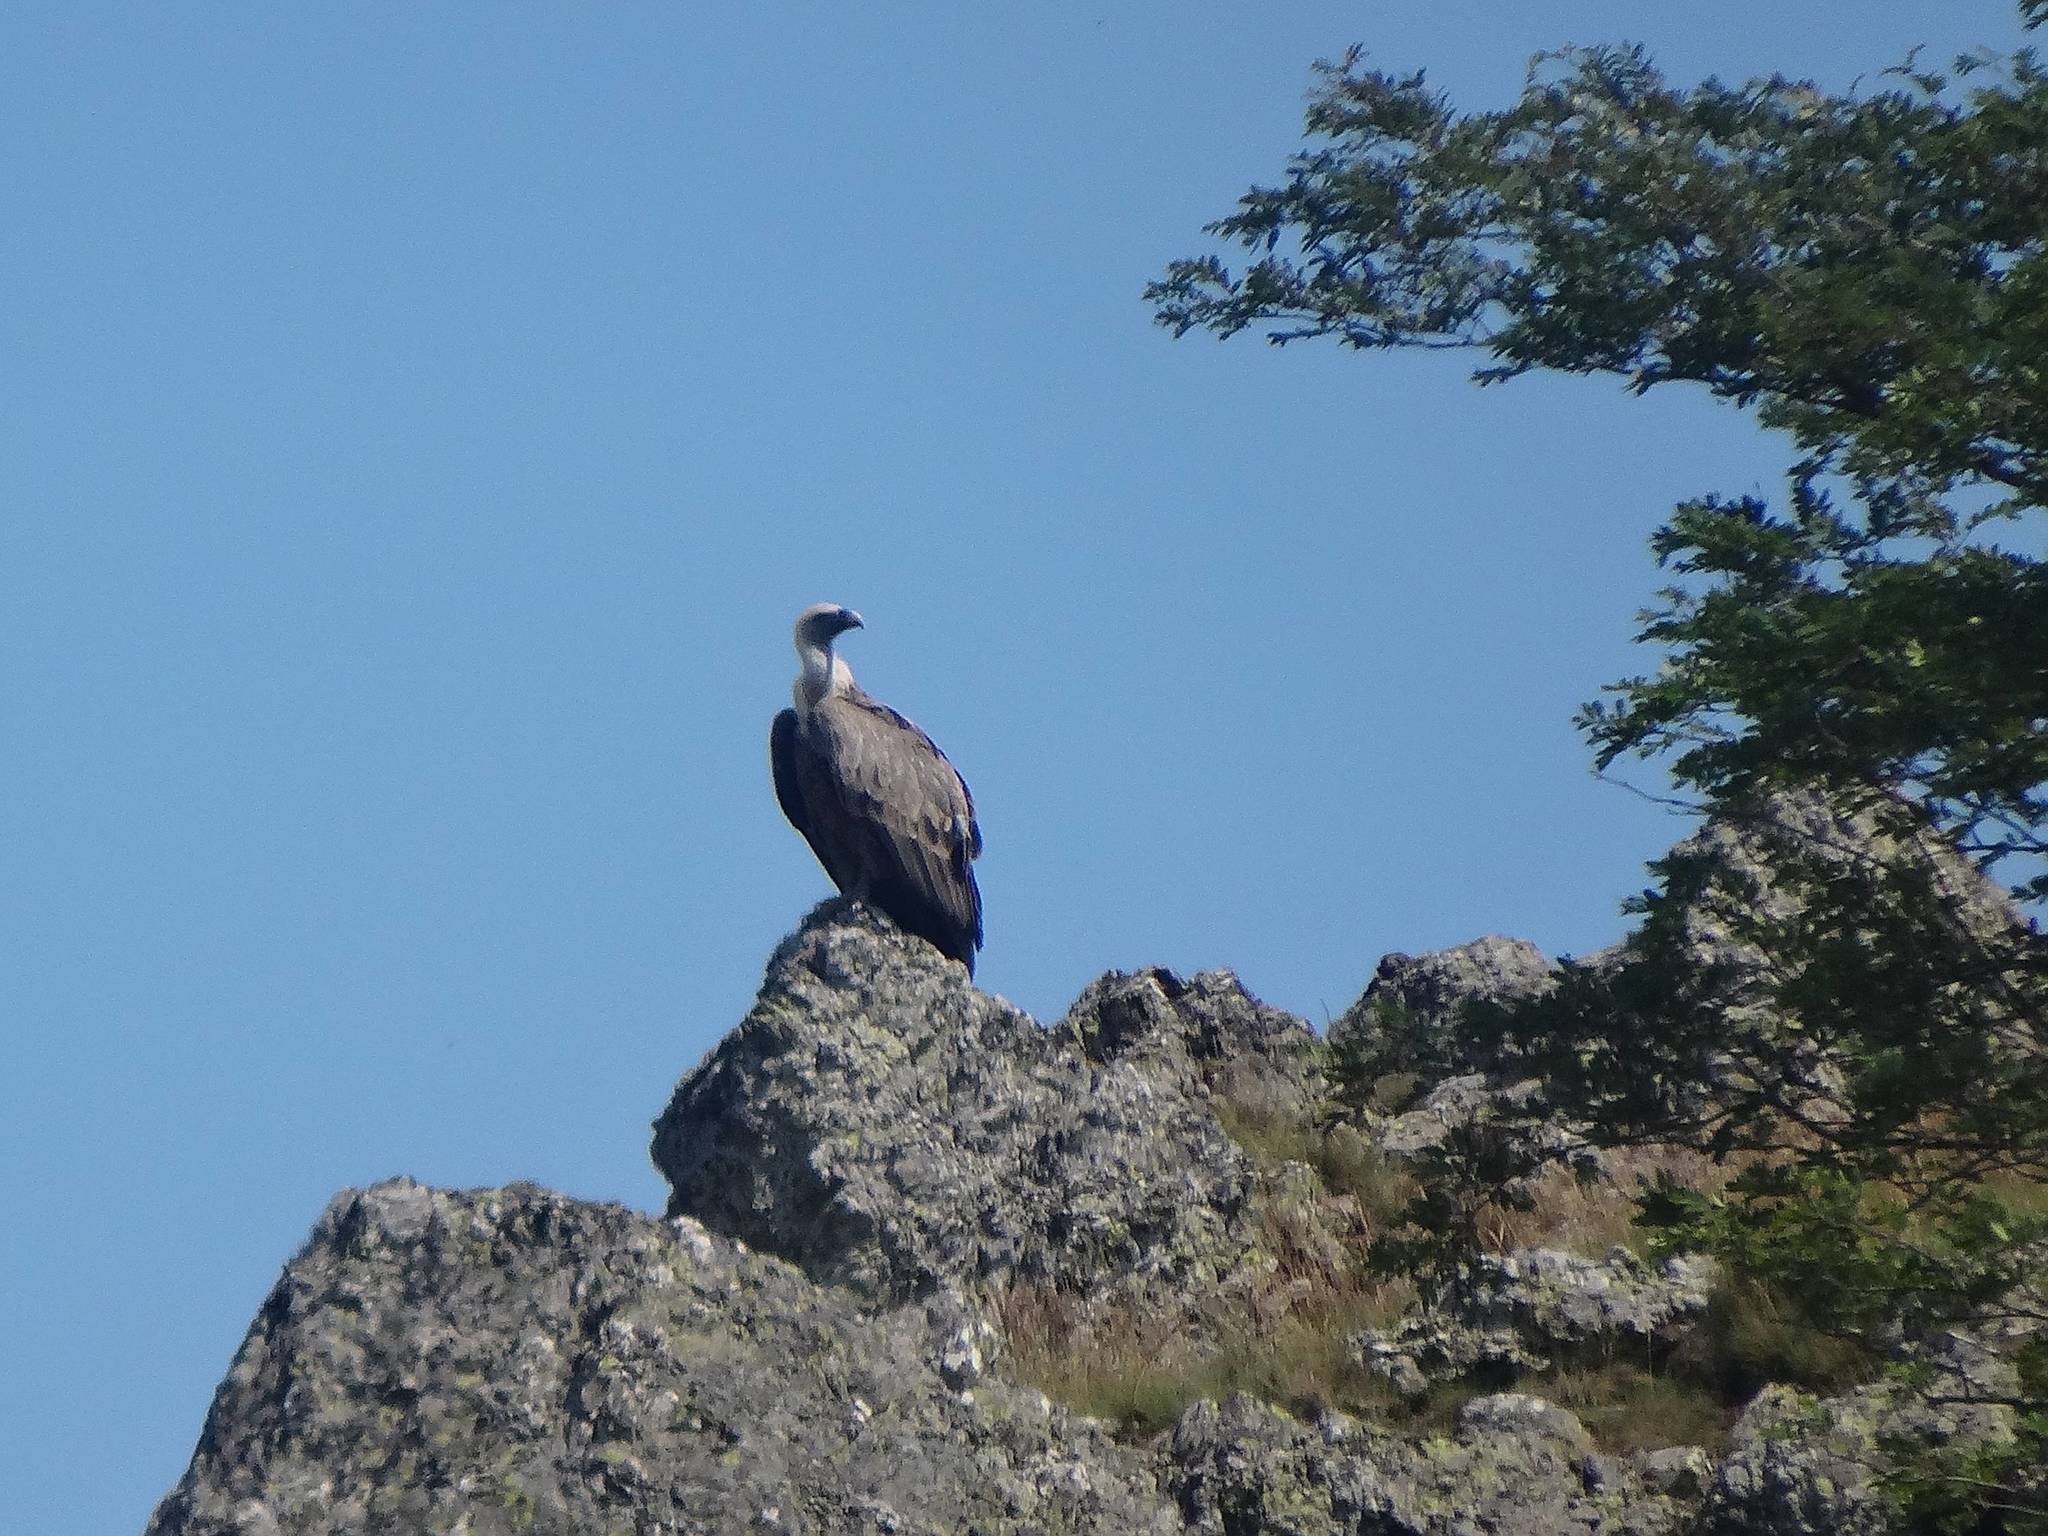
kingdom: Animalia
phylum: Chordata
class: Aves
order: Accipitriformes
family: Accipitridae
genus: Gyps
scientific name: Gyps fulvus
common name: Griffon vulture
